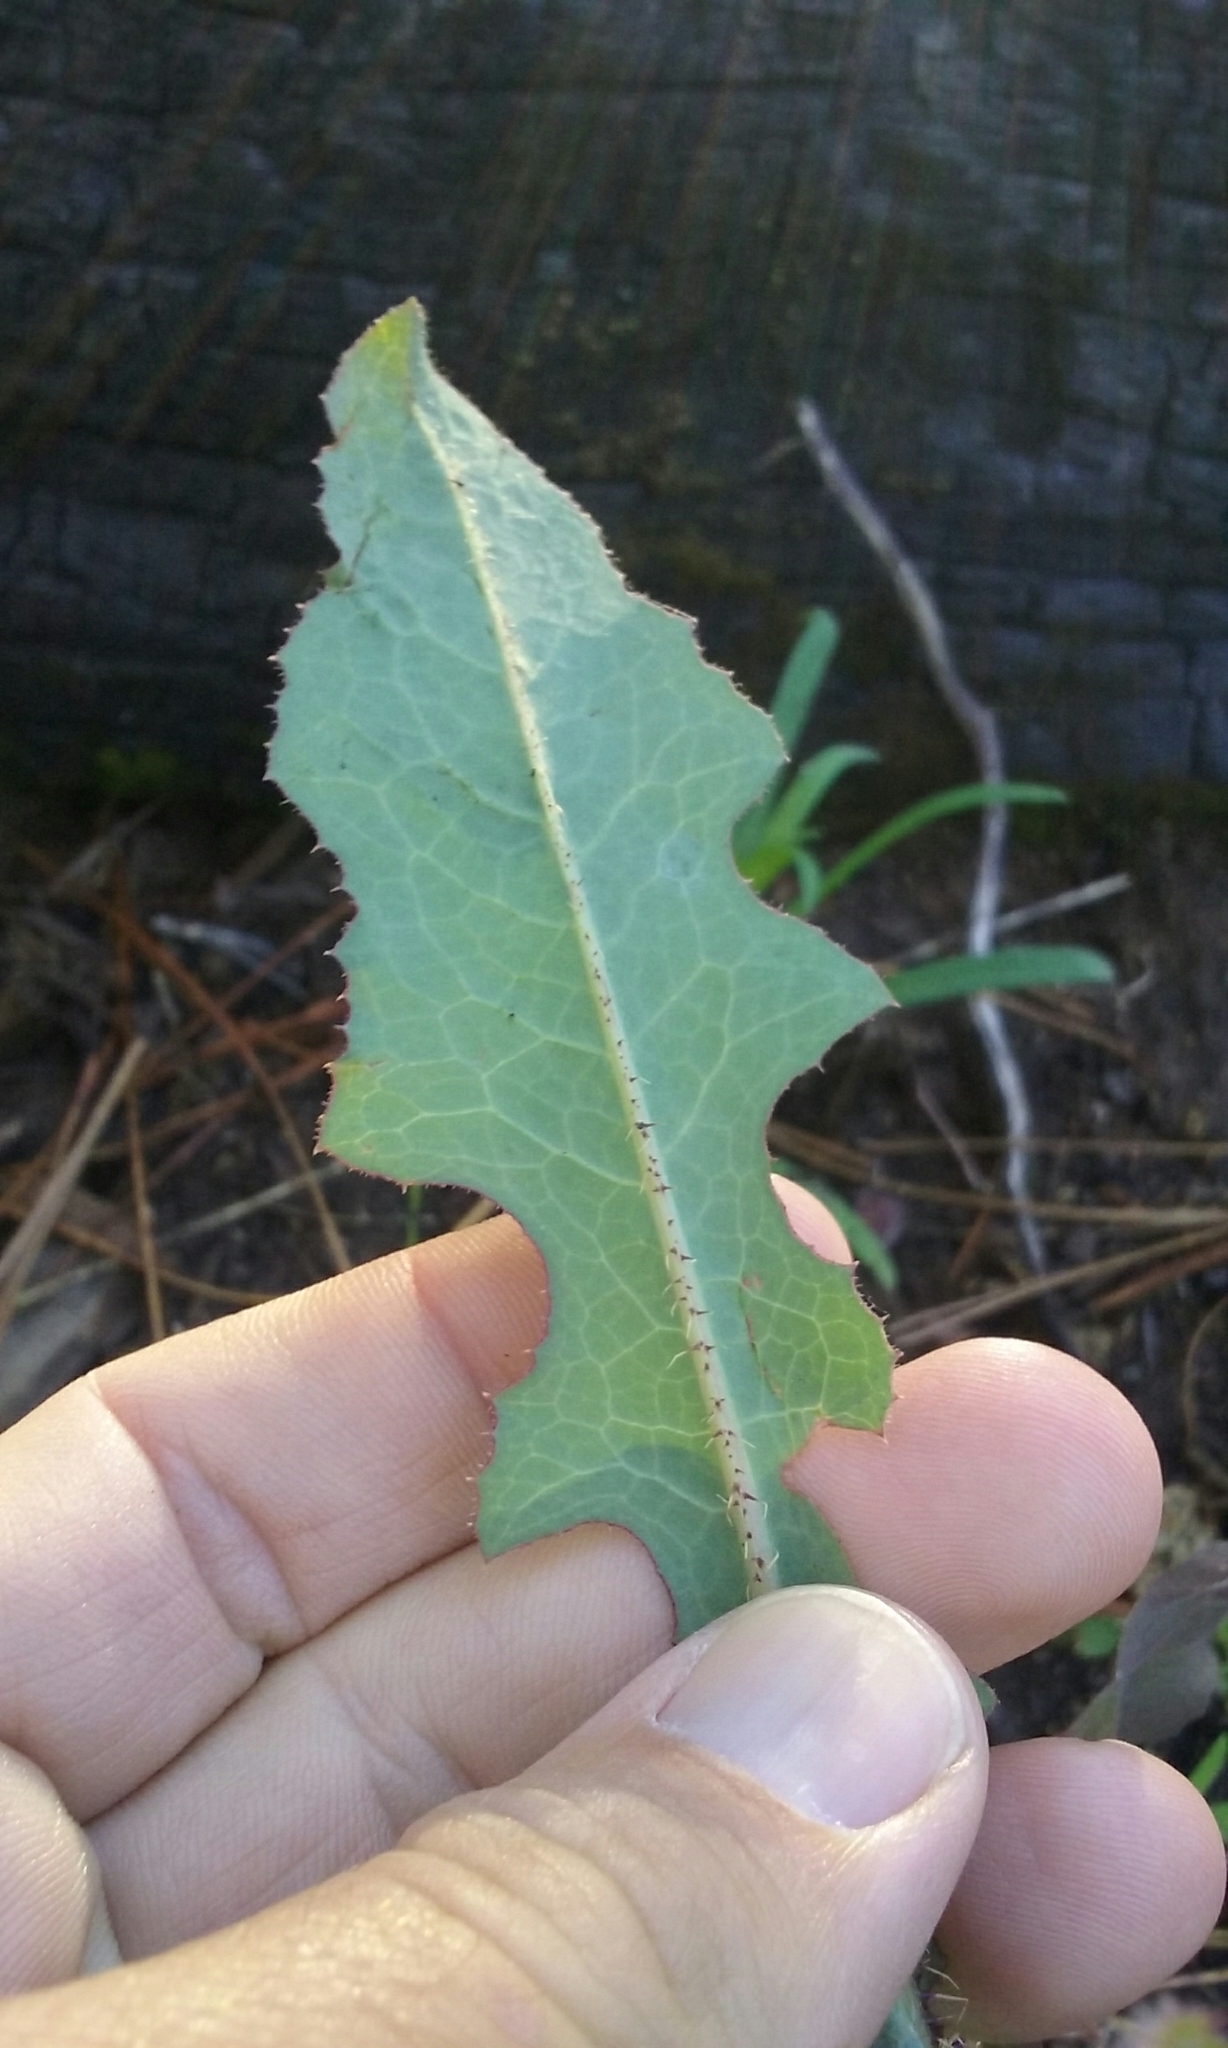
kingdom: Plantae
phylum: Tracheophyta
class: Magnoliopsida
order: Asterales
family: Asteraceae
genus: Lactuca
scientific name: Lactuca serriola
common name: Prickly lettuce
